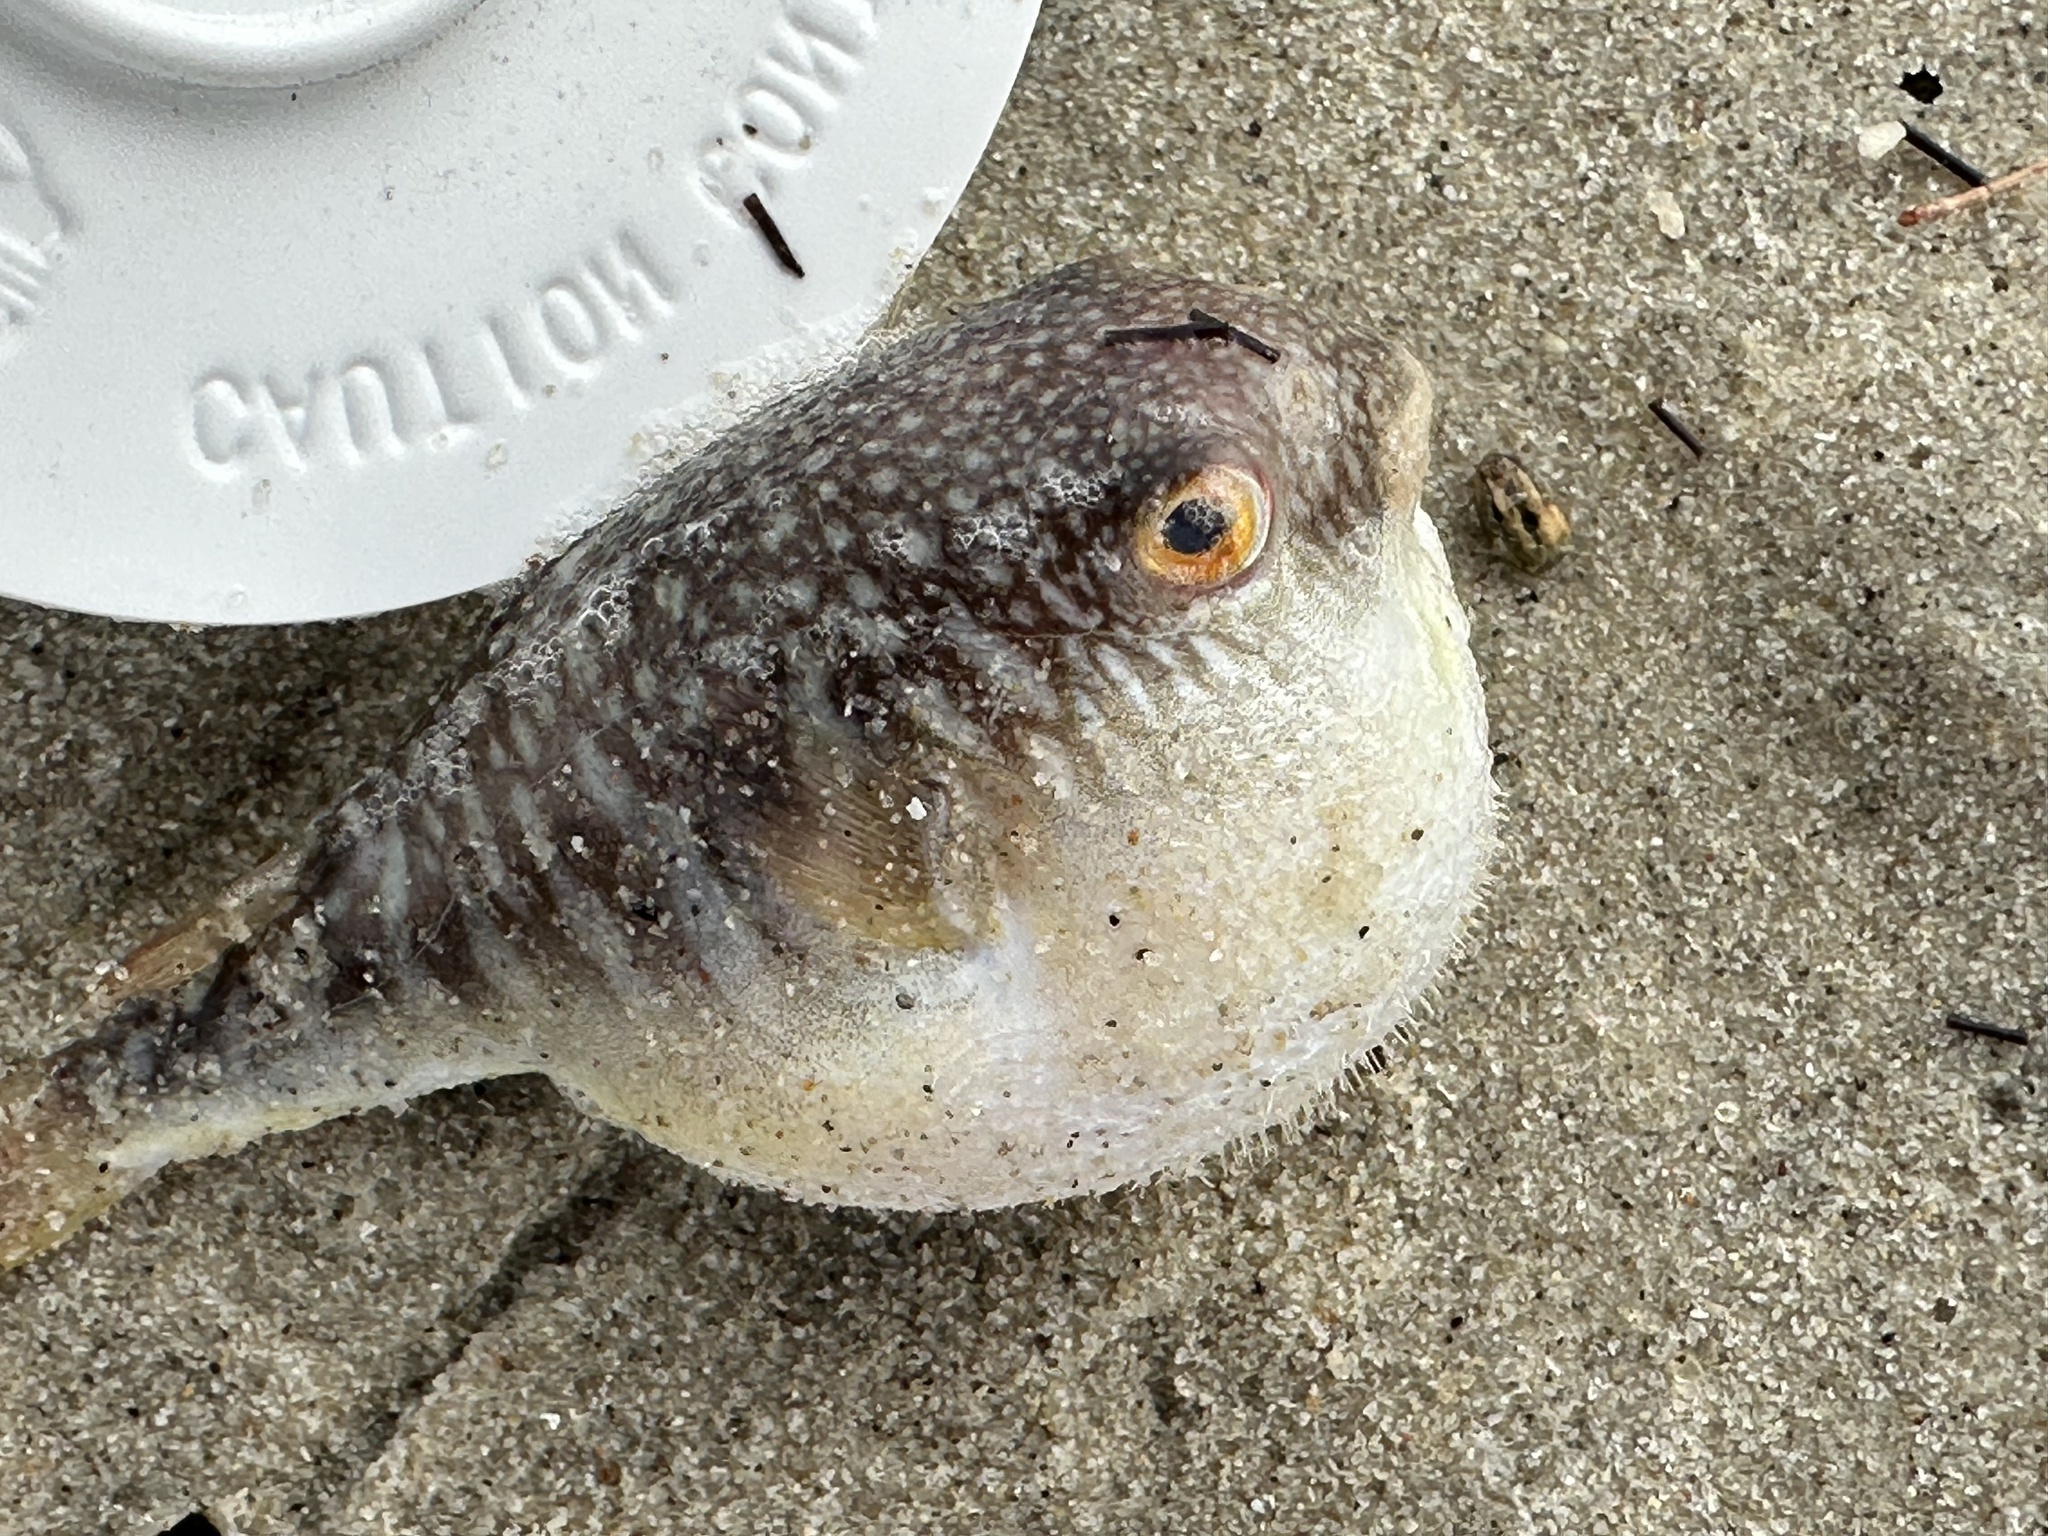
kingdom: Animalia
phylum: Chordata
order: Tetraodontiformes
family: Tetraodontidae
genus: Takifugu
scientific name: Takifugu oblongus
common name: Lattice blaasop
